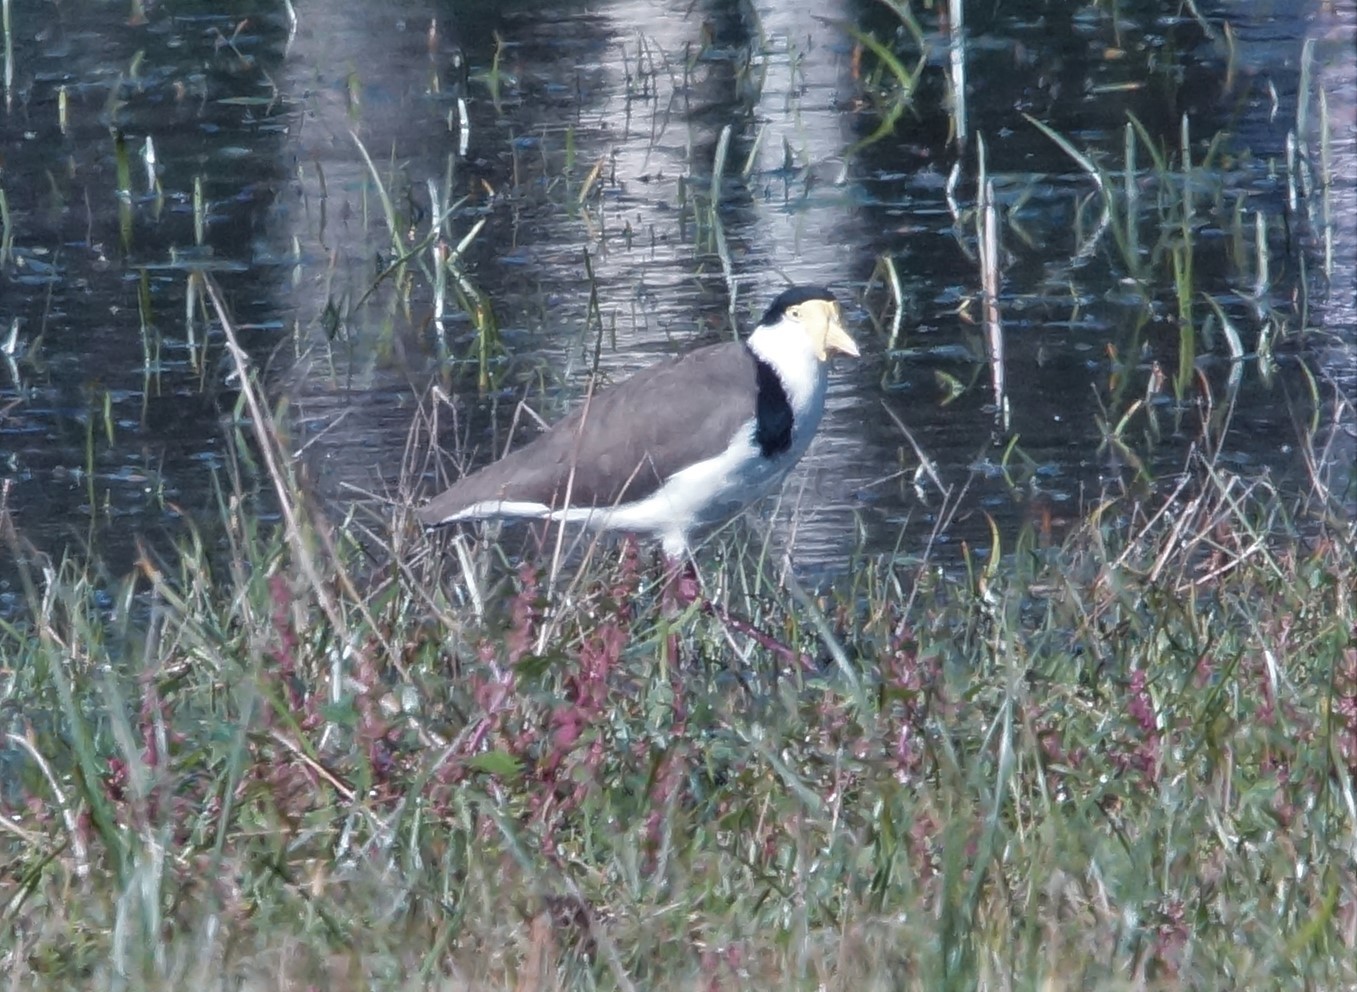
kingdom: Animalia
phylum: Chordata
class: Aves
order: Charadriiformes
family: Charadriidae
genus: Vanellus
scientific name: Vanellus miles
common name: Masked lapwing
